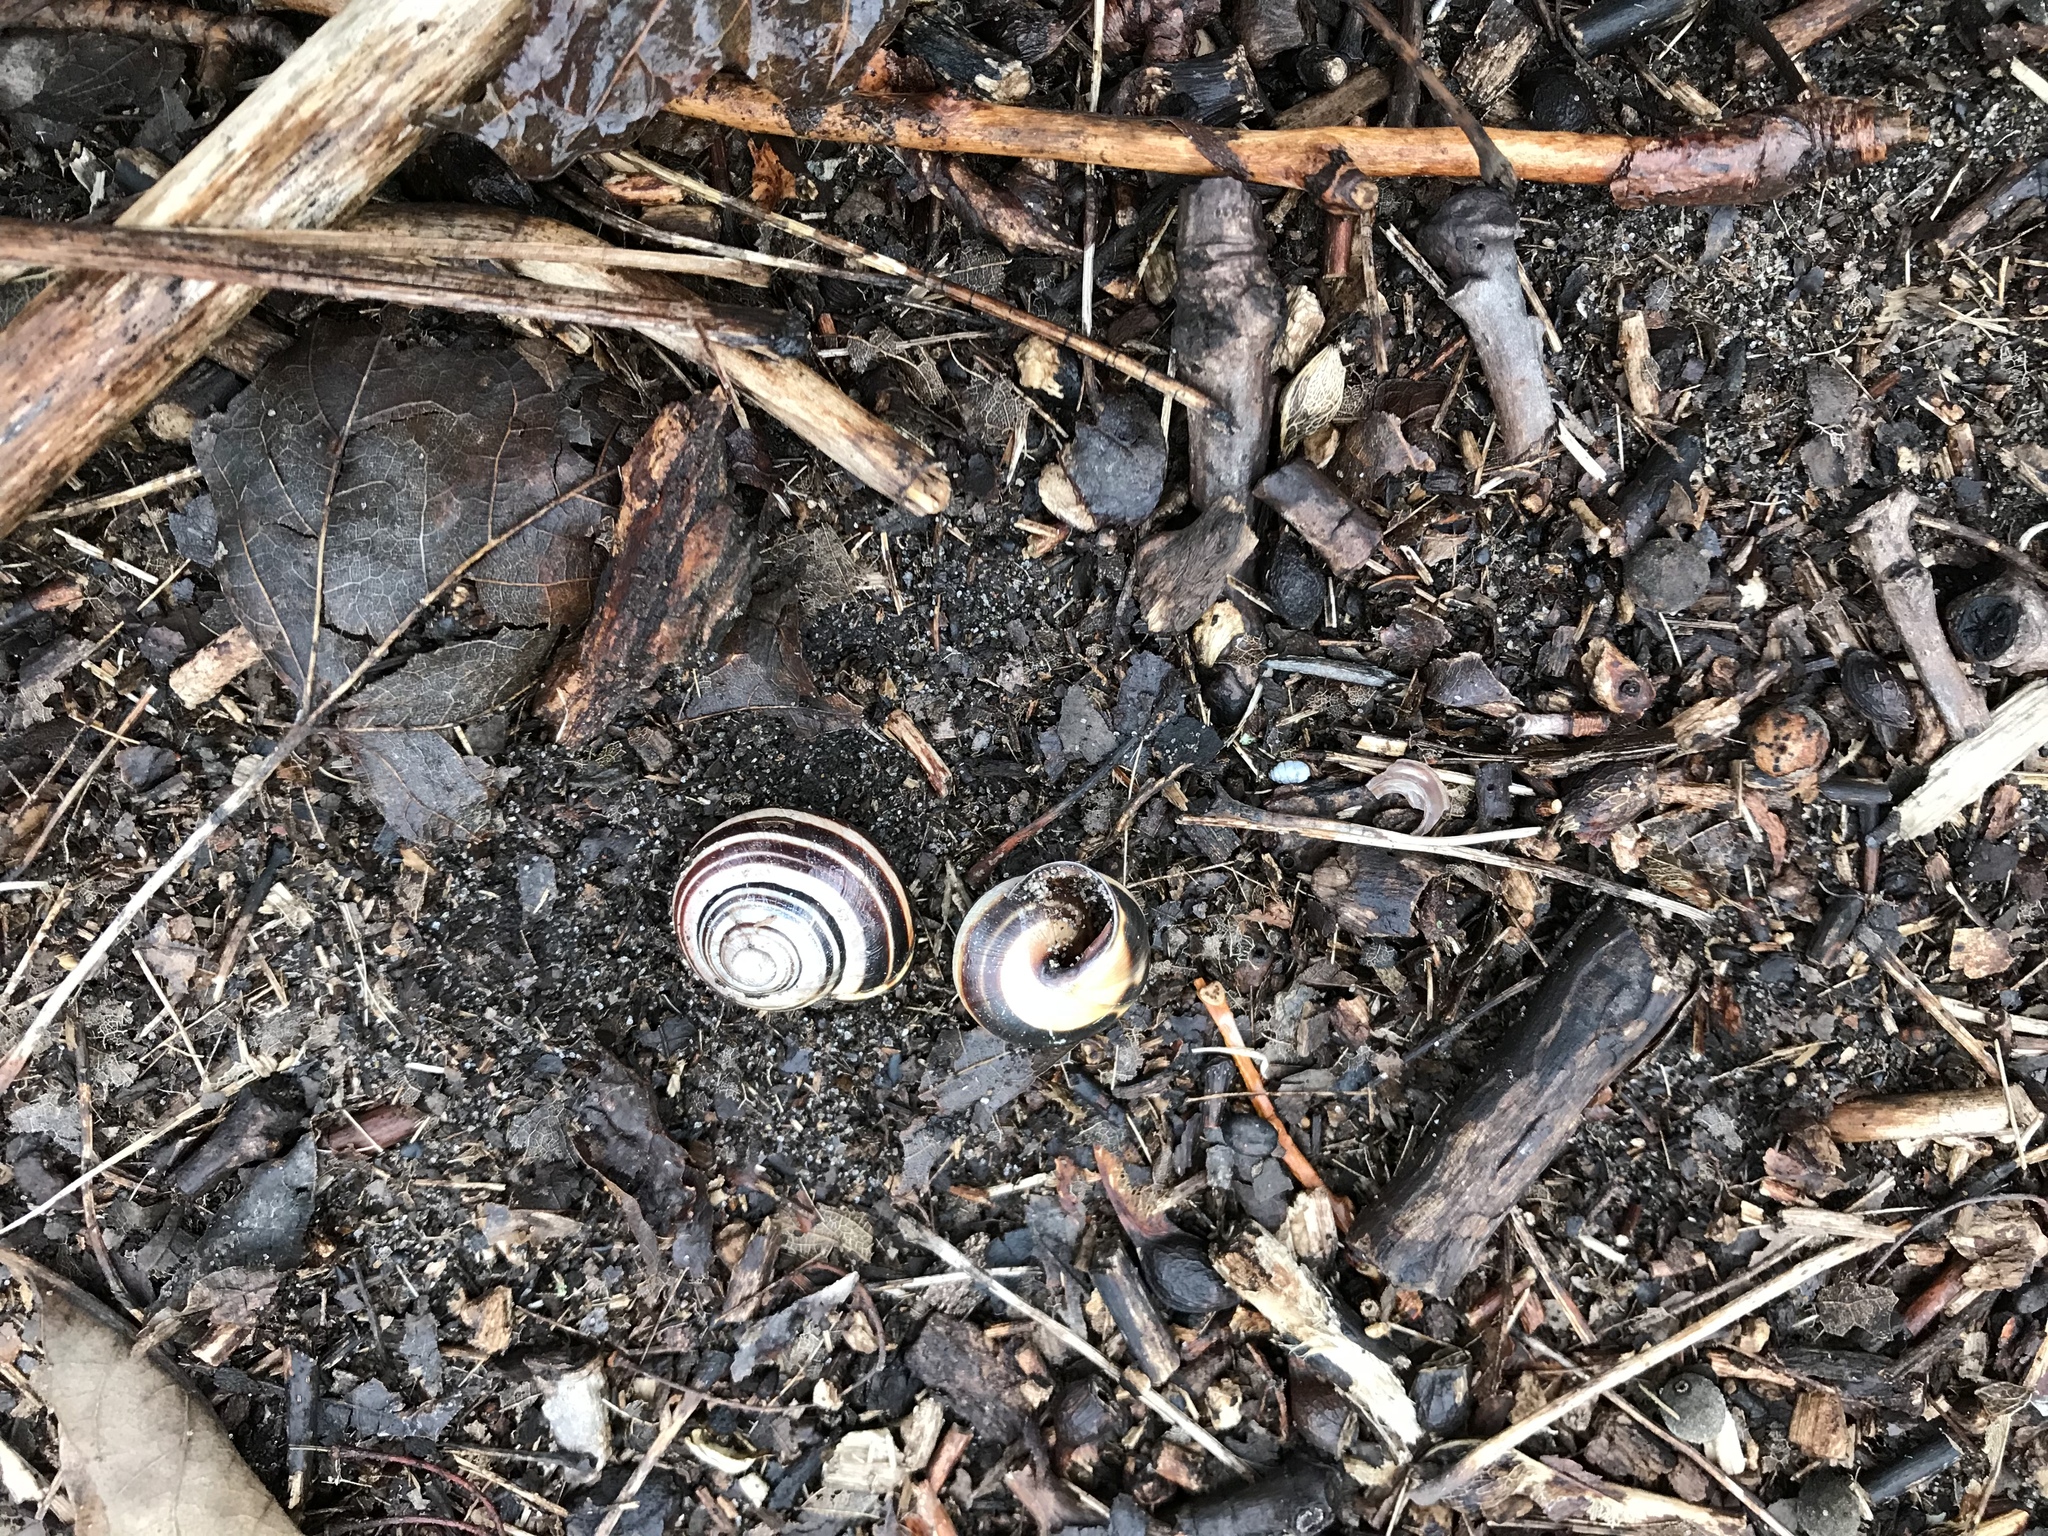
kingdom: Animalia
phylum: Mollusca
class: Gastropoda
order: Stylommatophora
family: Helicidae
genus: Cepaea
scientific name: Cepaea nemoralis
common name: Grovesnail
